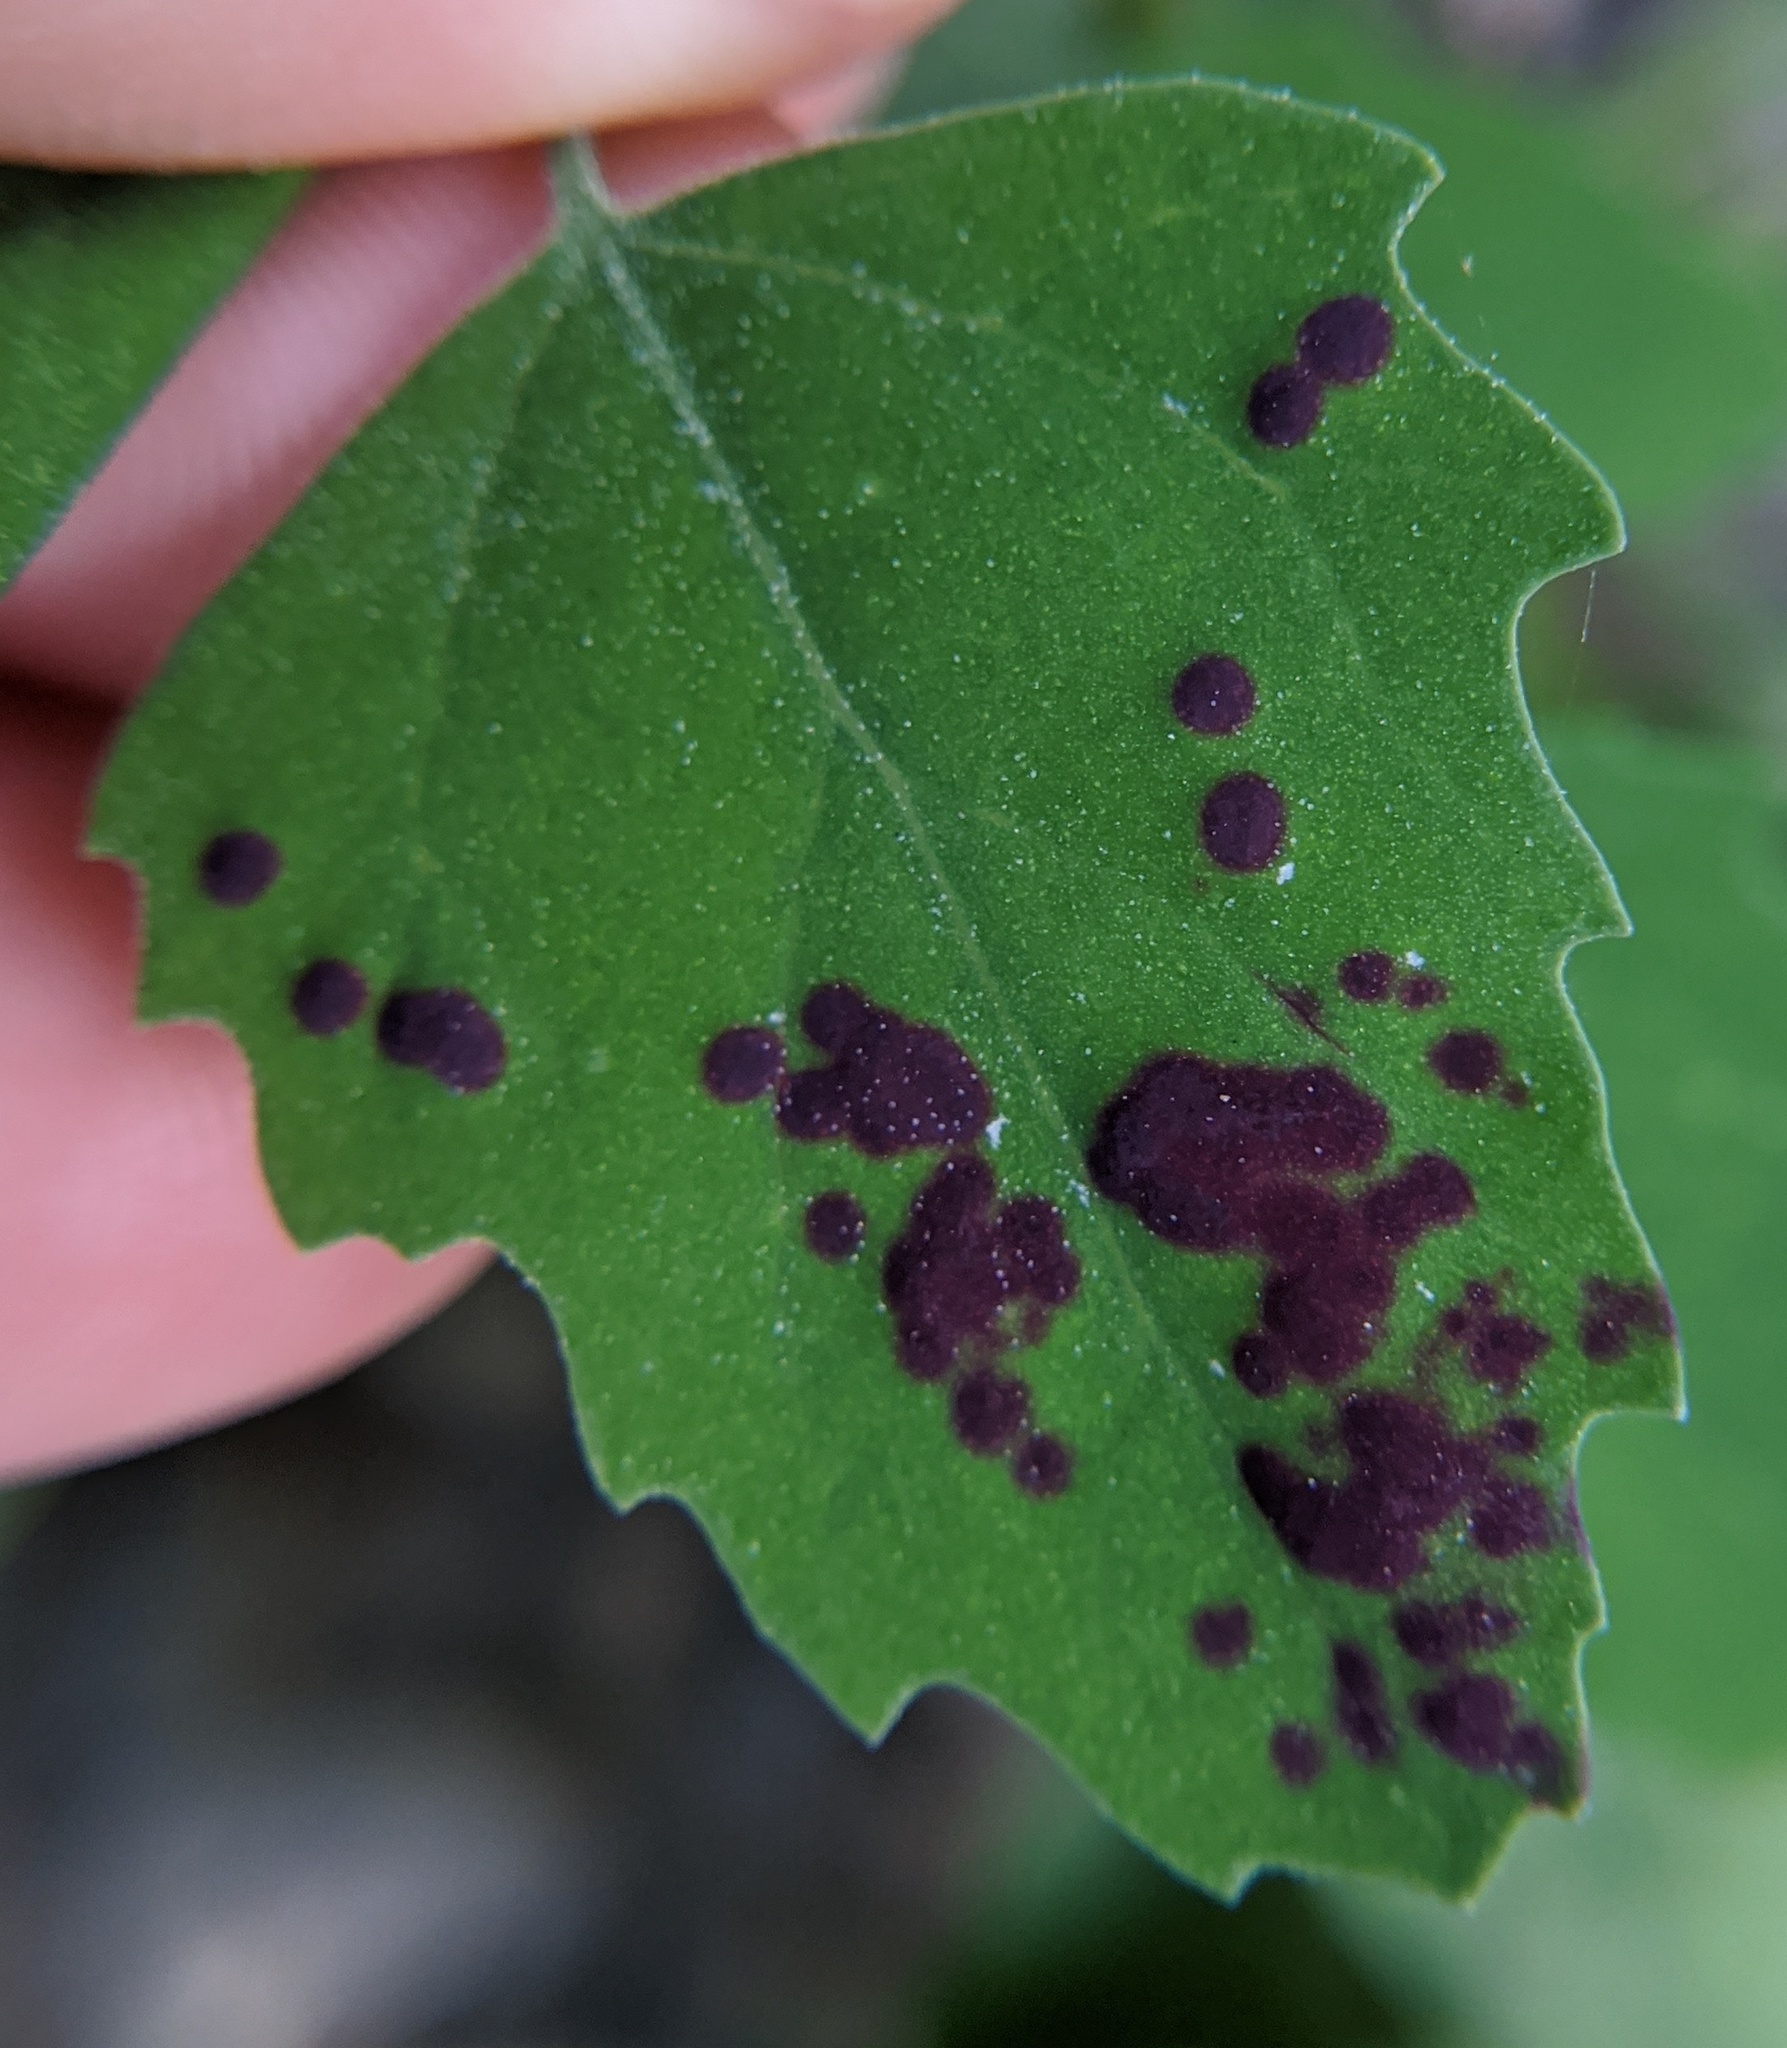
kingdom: Animalia
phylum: Arthropoda
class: Insecta
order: Hemiptera
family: Cicadellidae
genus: Norvellina
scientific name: Norvellina chenopodii
